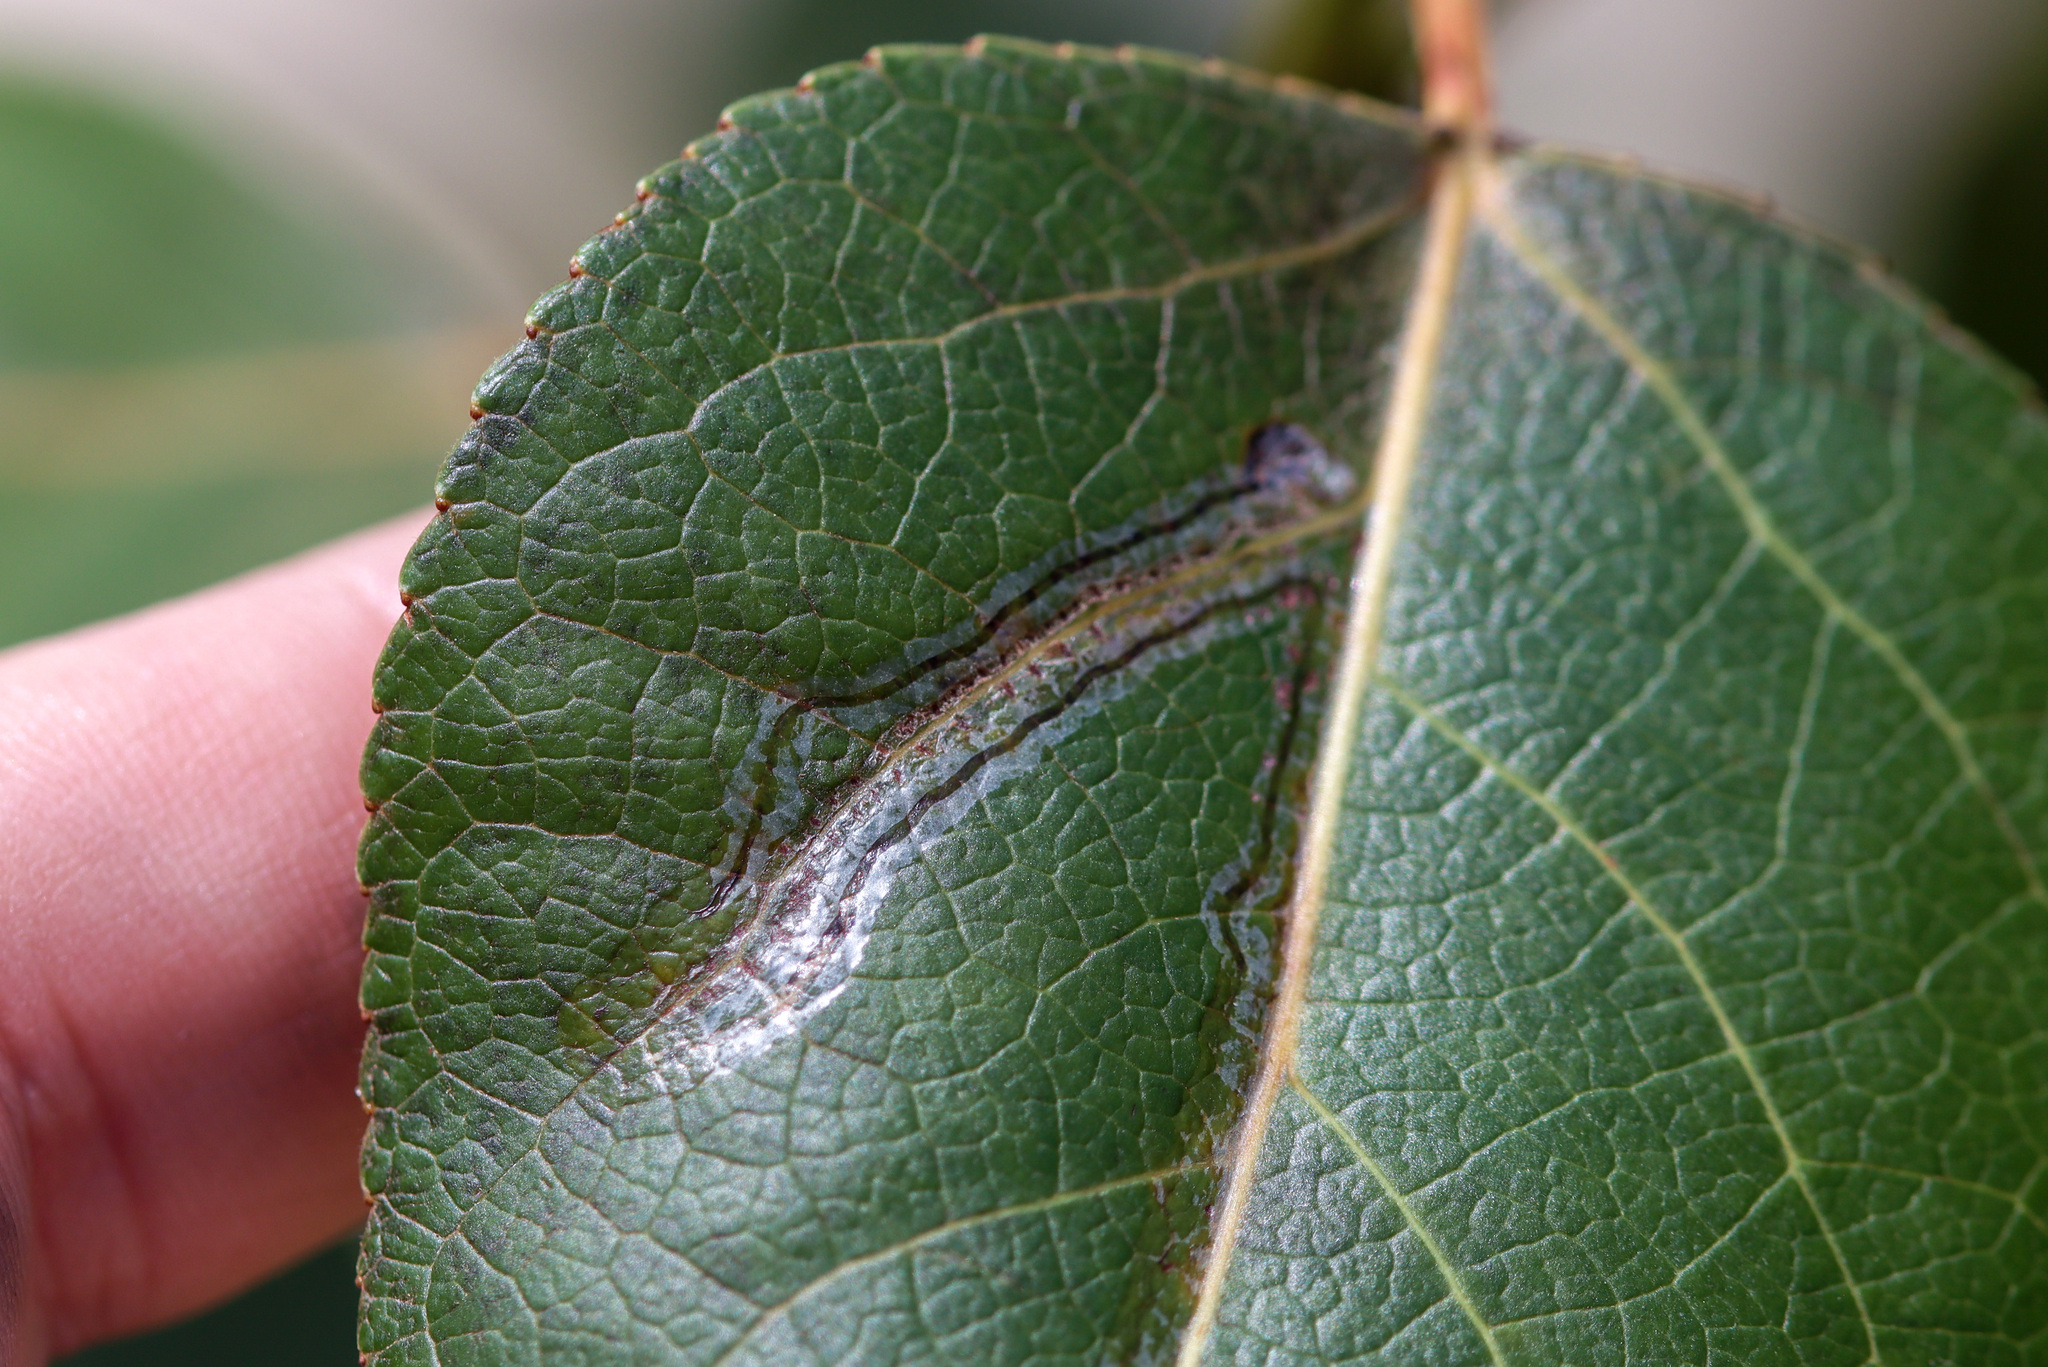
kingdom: Animalia
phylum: Arthropoda
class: Insecta
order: Lepidoptera
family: Gracillariidae
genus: Phyllocnistis
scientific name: Phyllocnistis populiella
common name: Aspen serpentine leafminer moth
